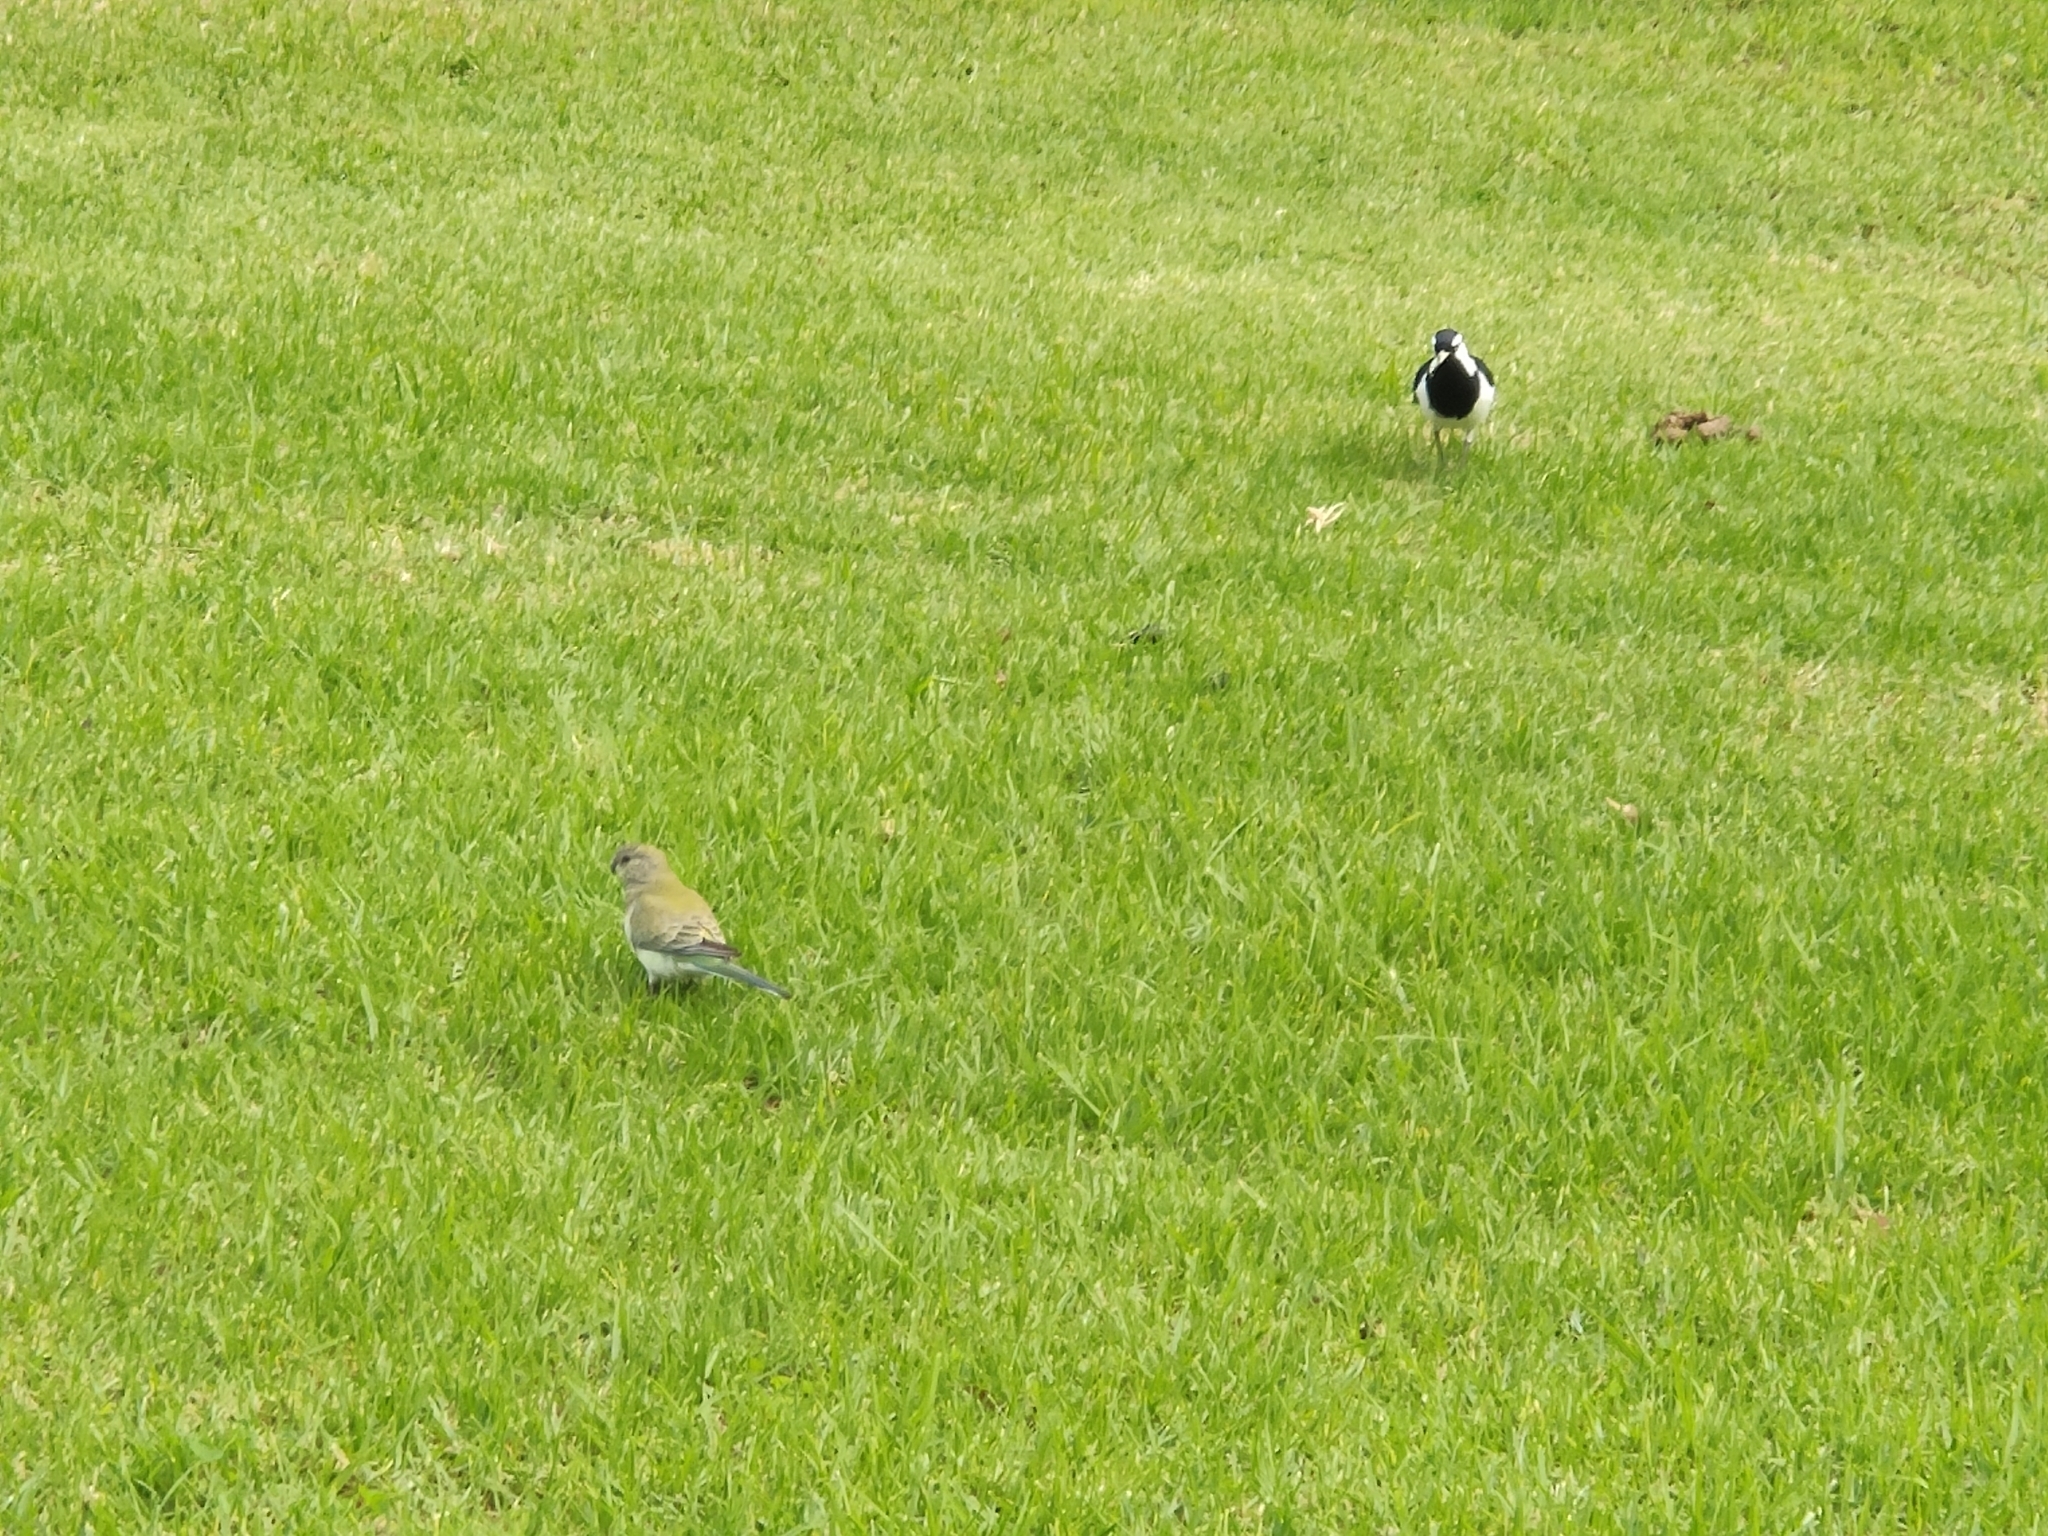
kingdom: Animalia
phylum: Chordata
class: Aves
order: Psittaciformes
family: Psittacidae
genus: Psephotus
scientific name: Psephotus haematonotus
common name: Red-rumped parrot
